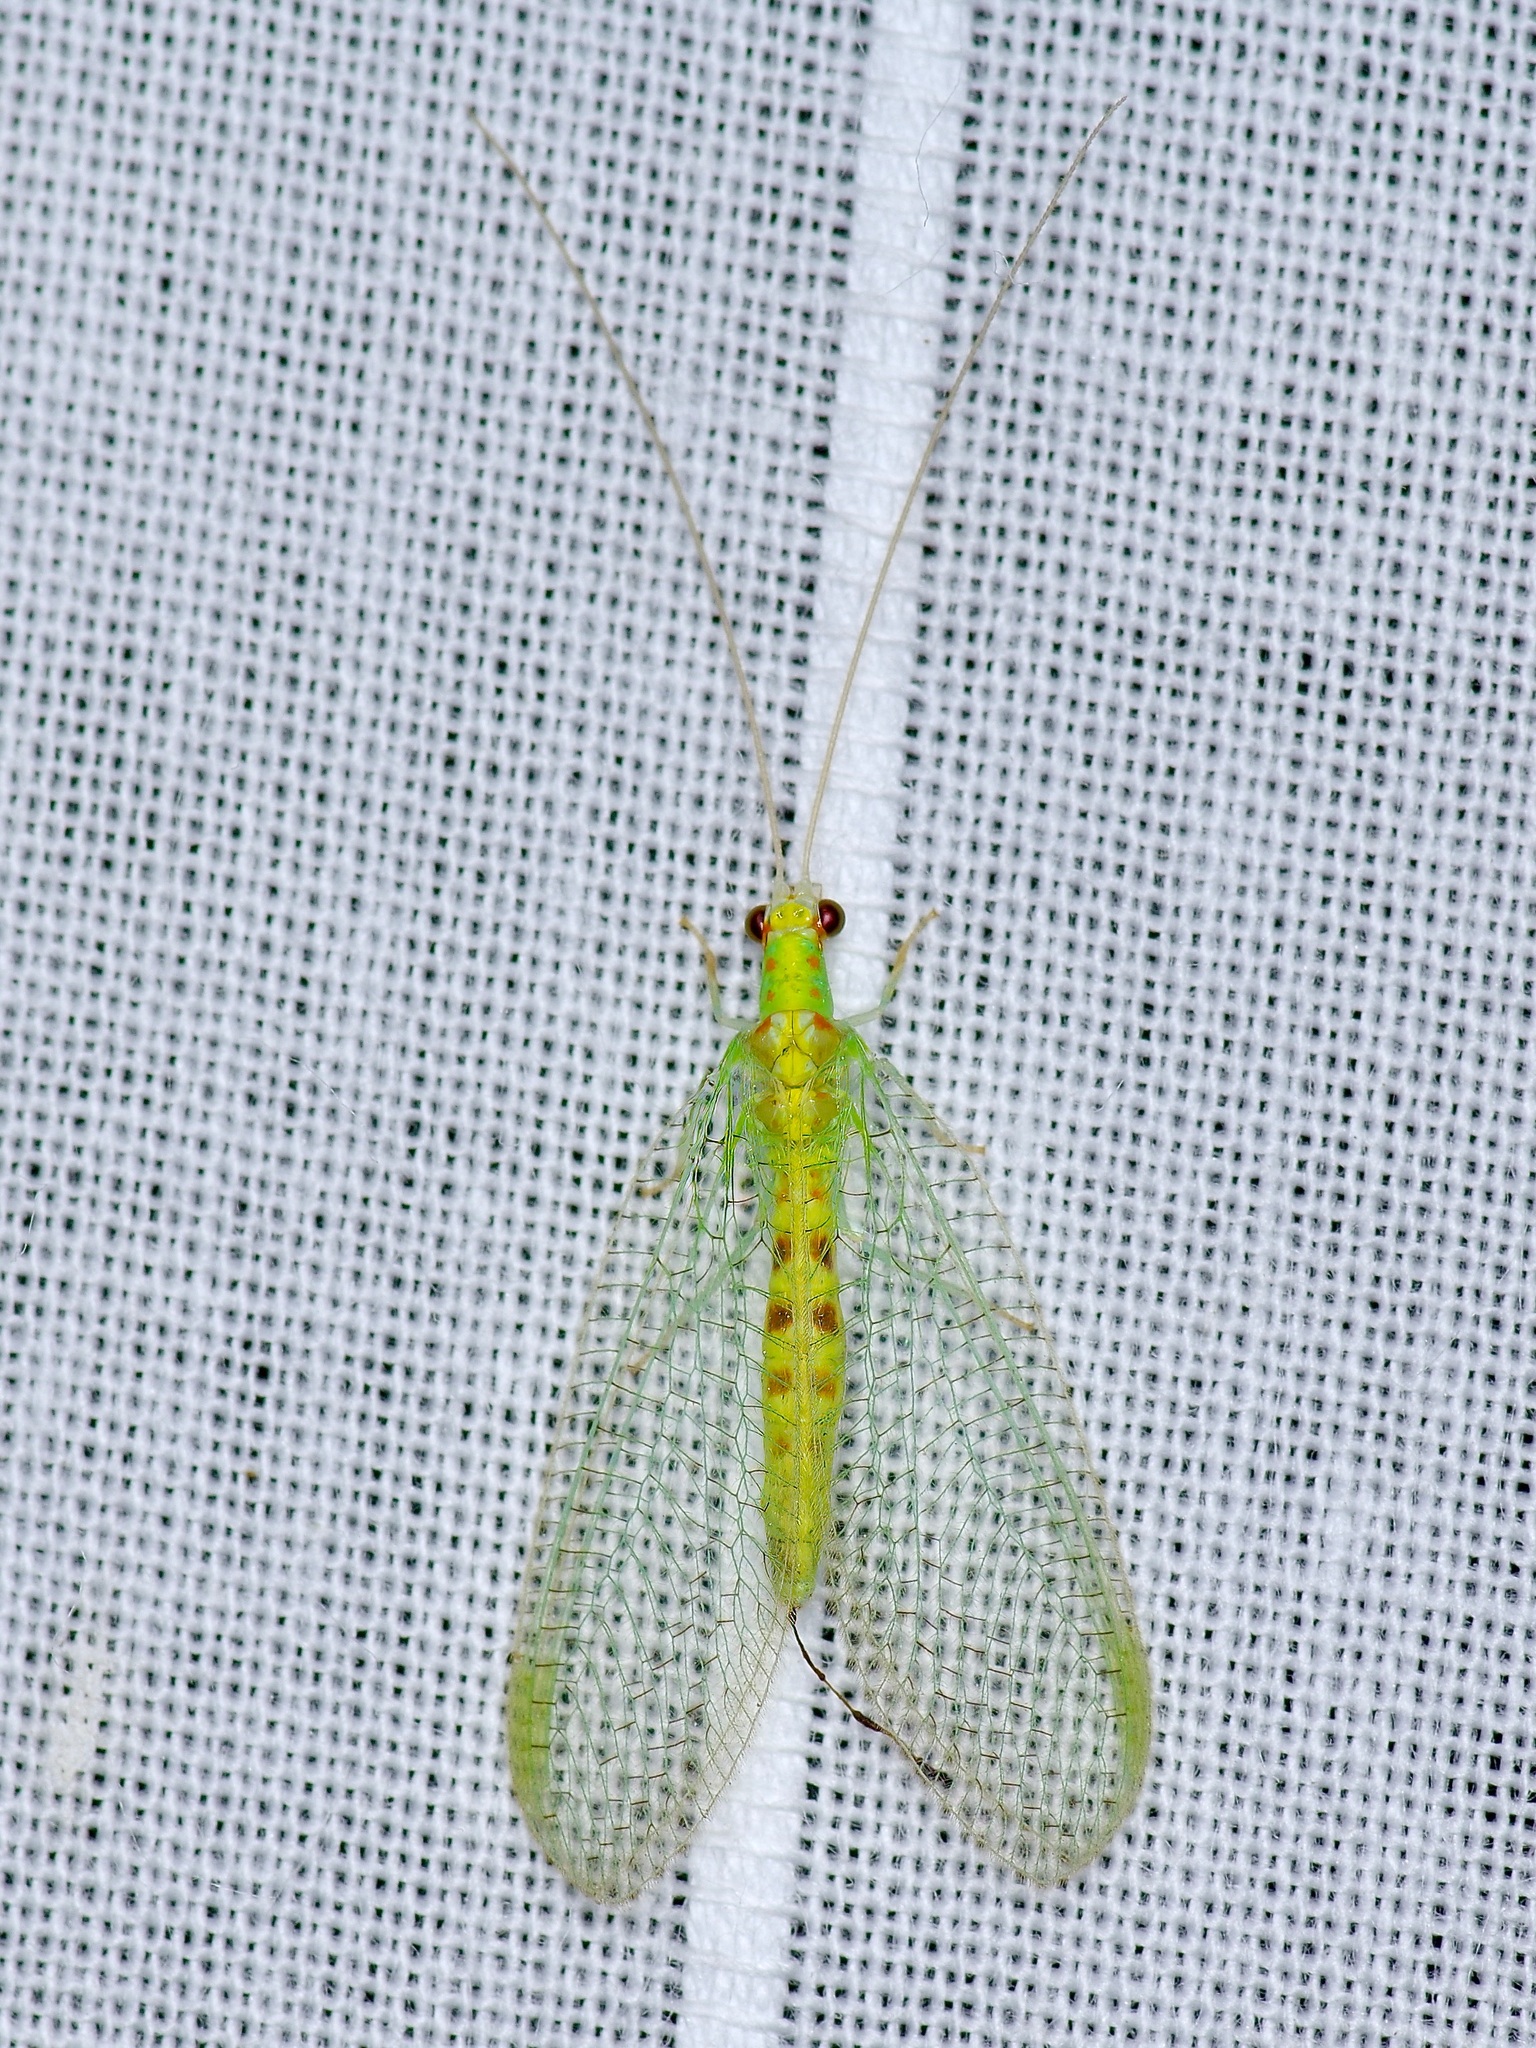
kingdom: Animalia
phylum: Arthropoda
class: Insecta
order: Neuroptera
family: Chrysopidae
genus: Chrysopa
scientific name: Chrysopa quadripunctata
